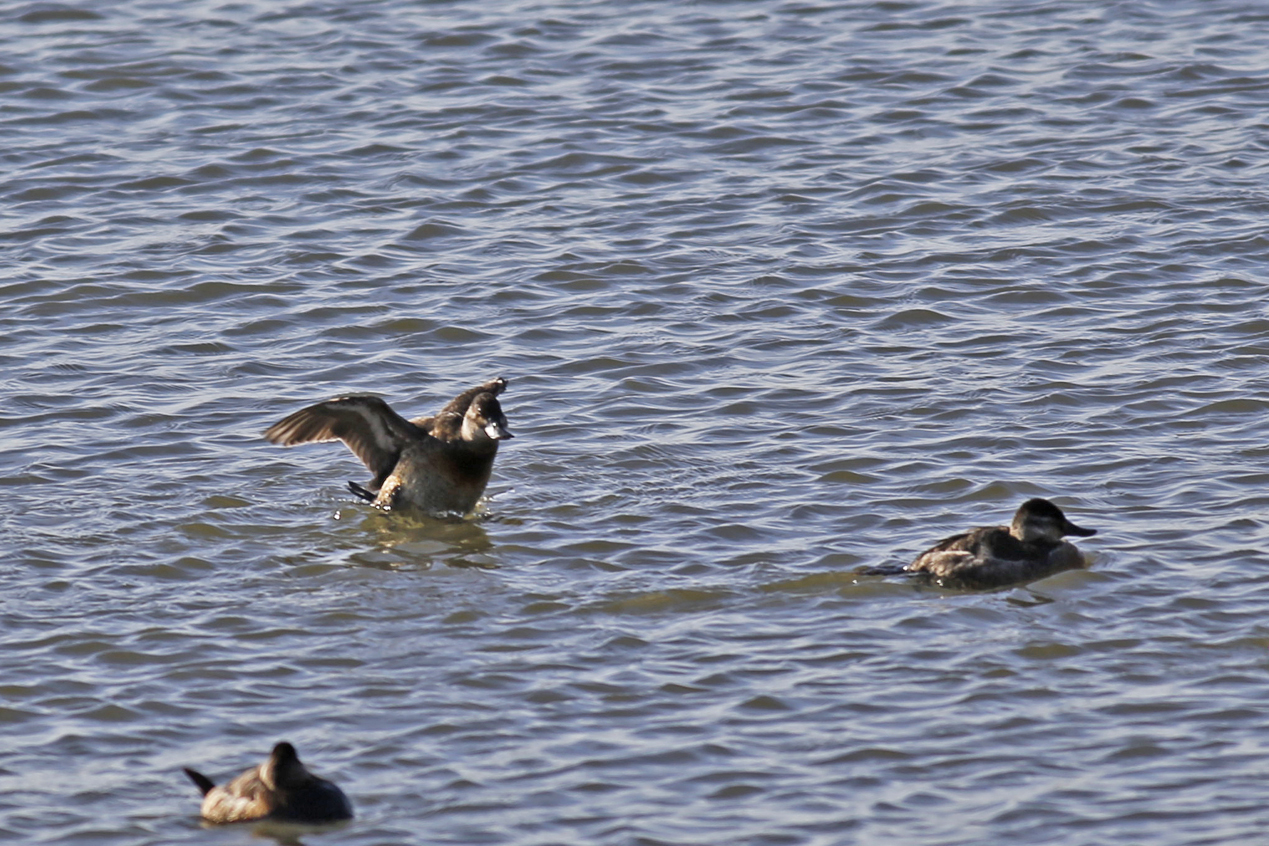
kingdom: Animalia
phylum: Chordata
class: Aves
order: Anseriformes
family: Anatidae
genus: Oxyura
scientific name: Oxyura jamaicensis
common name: Ruddy duck
